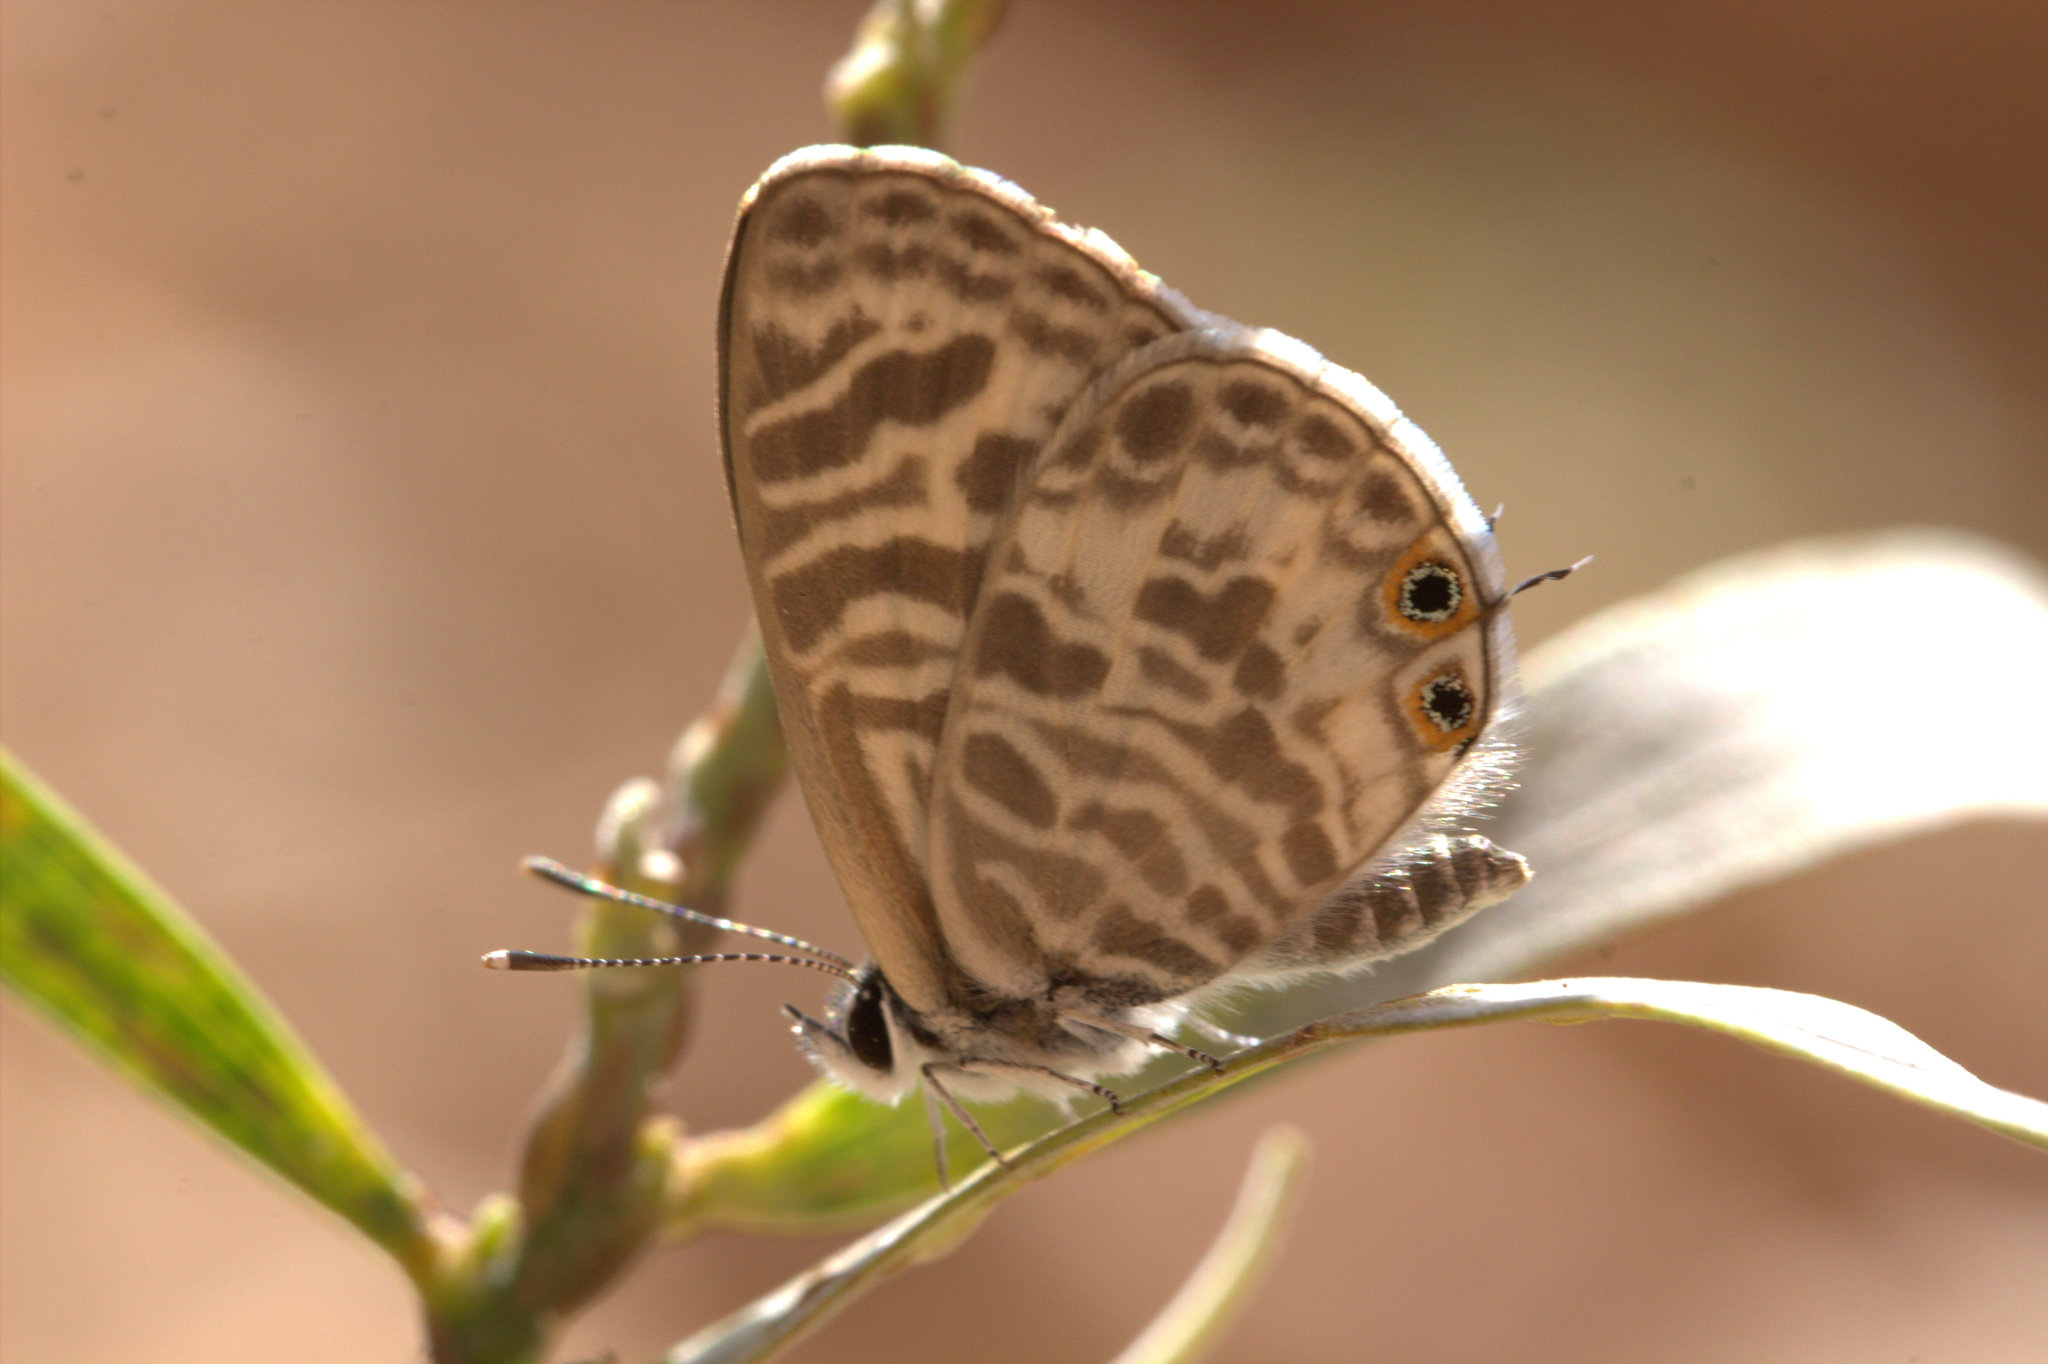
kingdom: Animalia
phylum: Arthropoda
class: Insecta
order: Lepidoptera
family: Lycaenidae
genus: Leptotes
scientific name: Leptotes plinius
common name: Zebra blue
